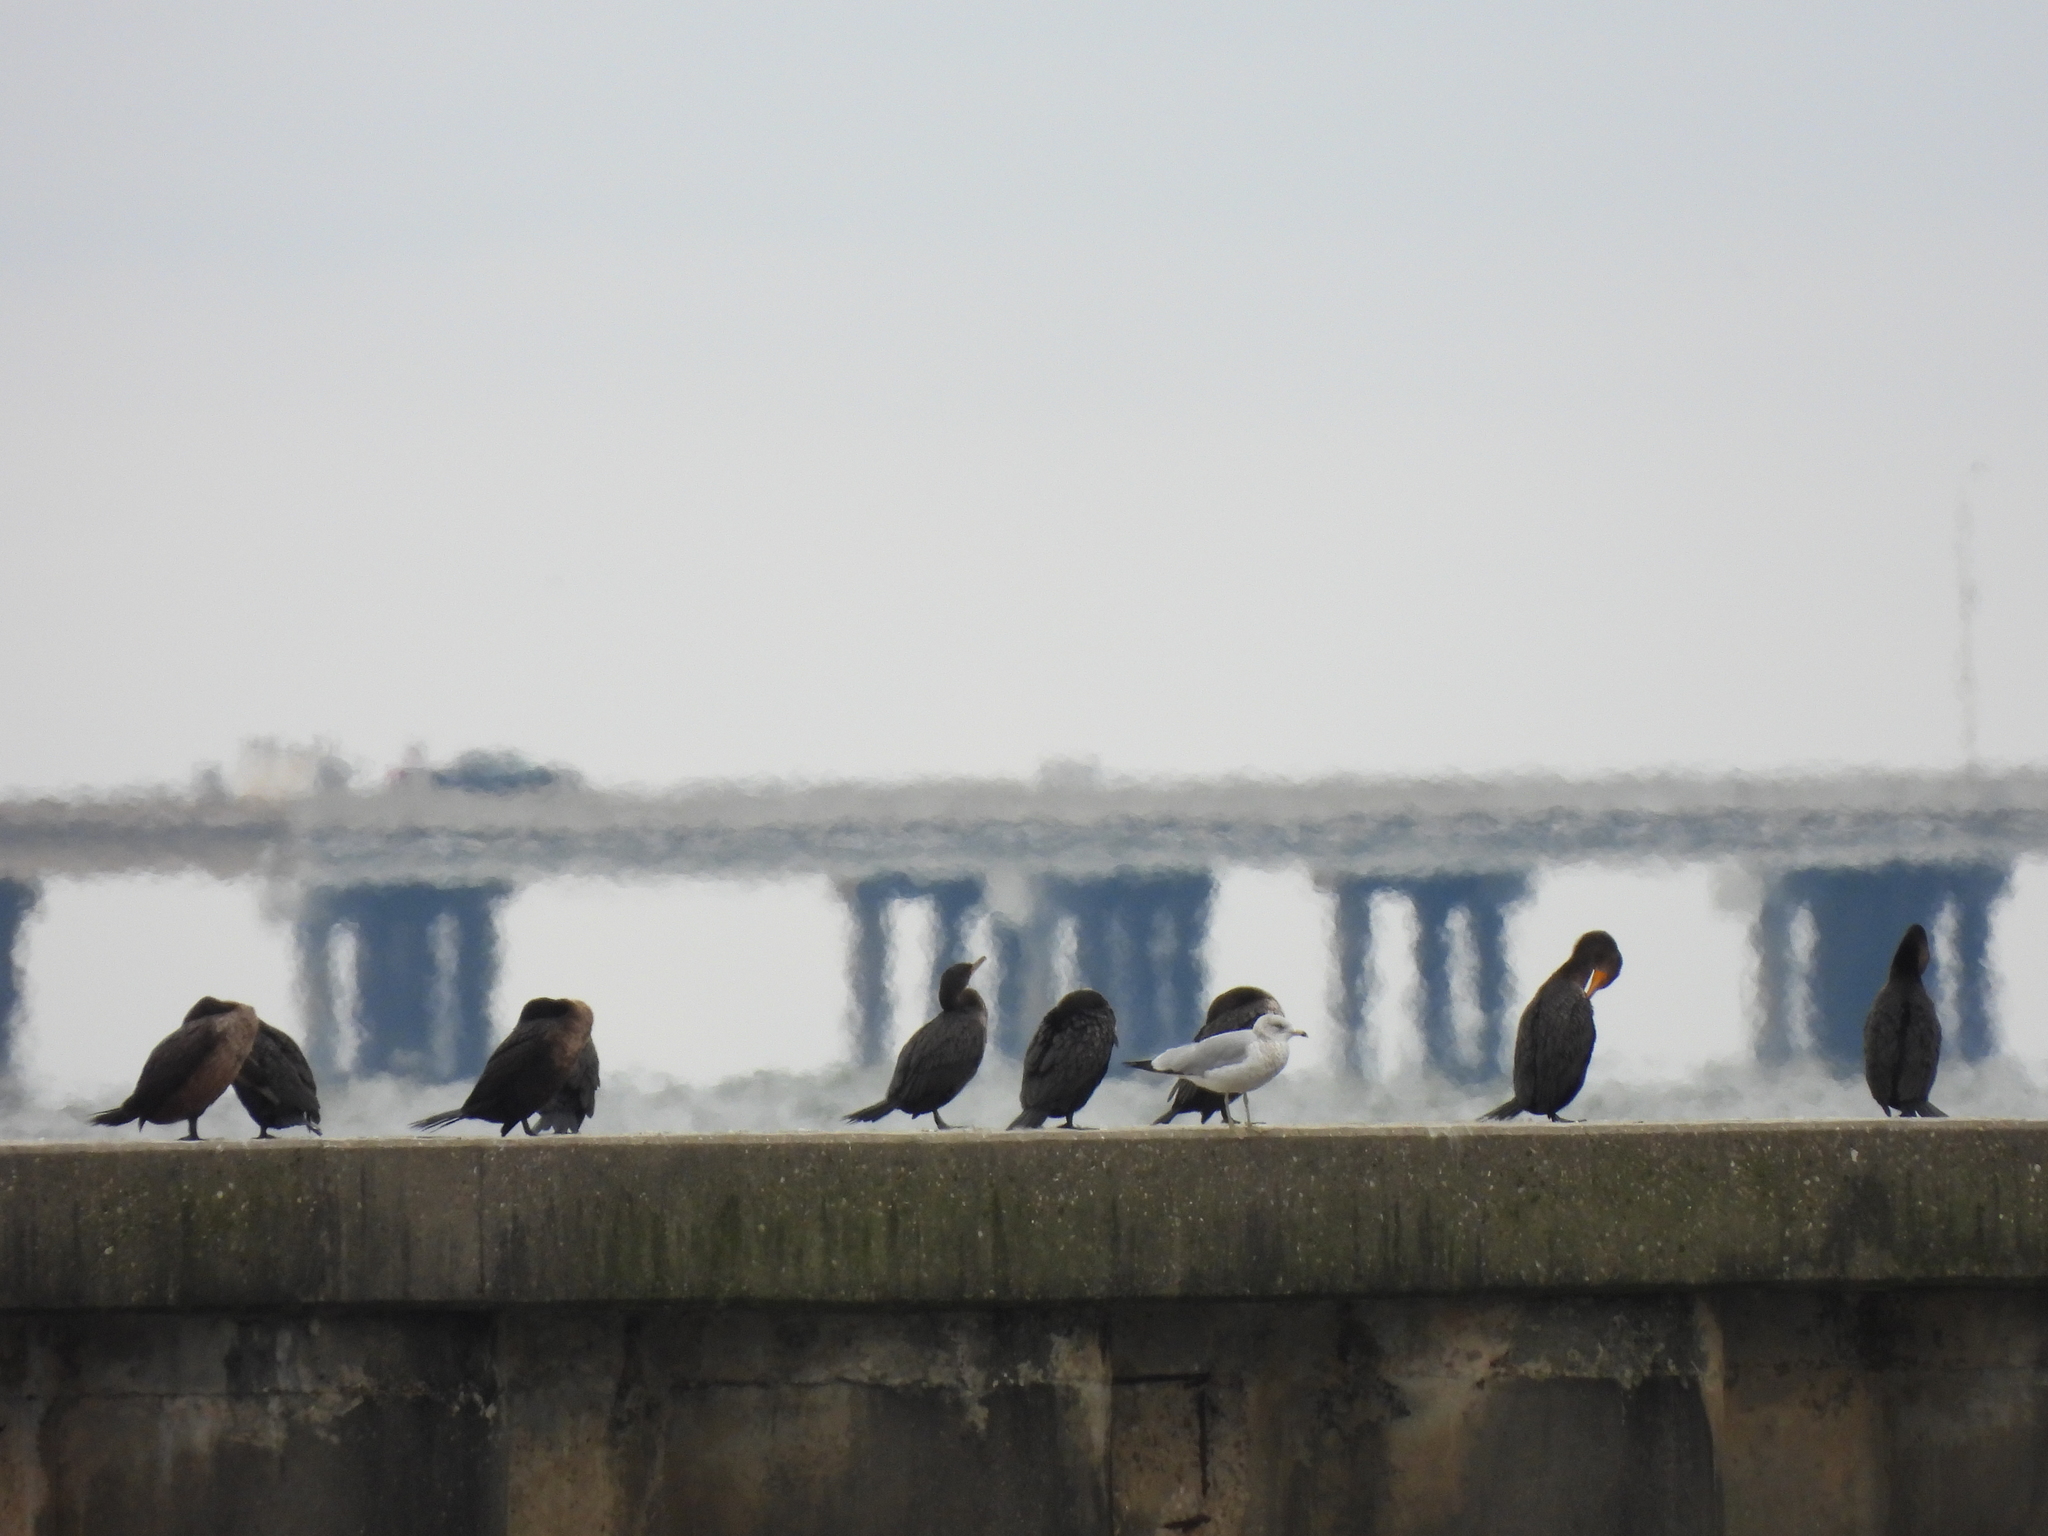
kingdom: Animalia
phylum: Chordata
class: Aves
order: Suliformes
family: Phalacrocoracidae
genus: Phalacrocorax
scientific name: Phalacrocorax auritus
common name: Double-crested cormorant
